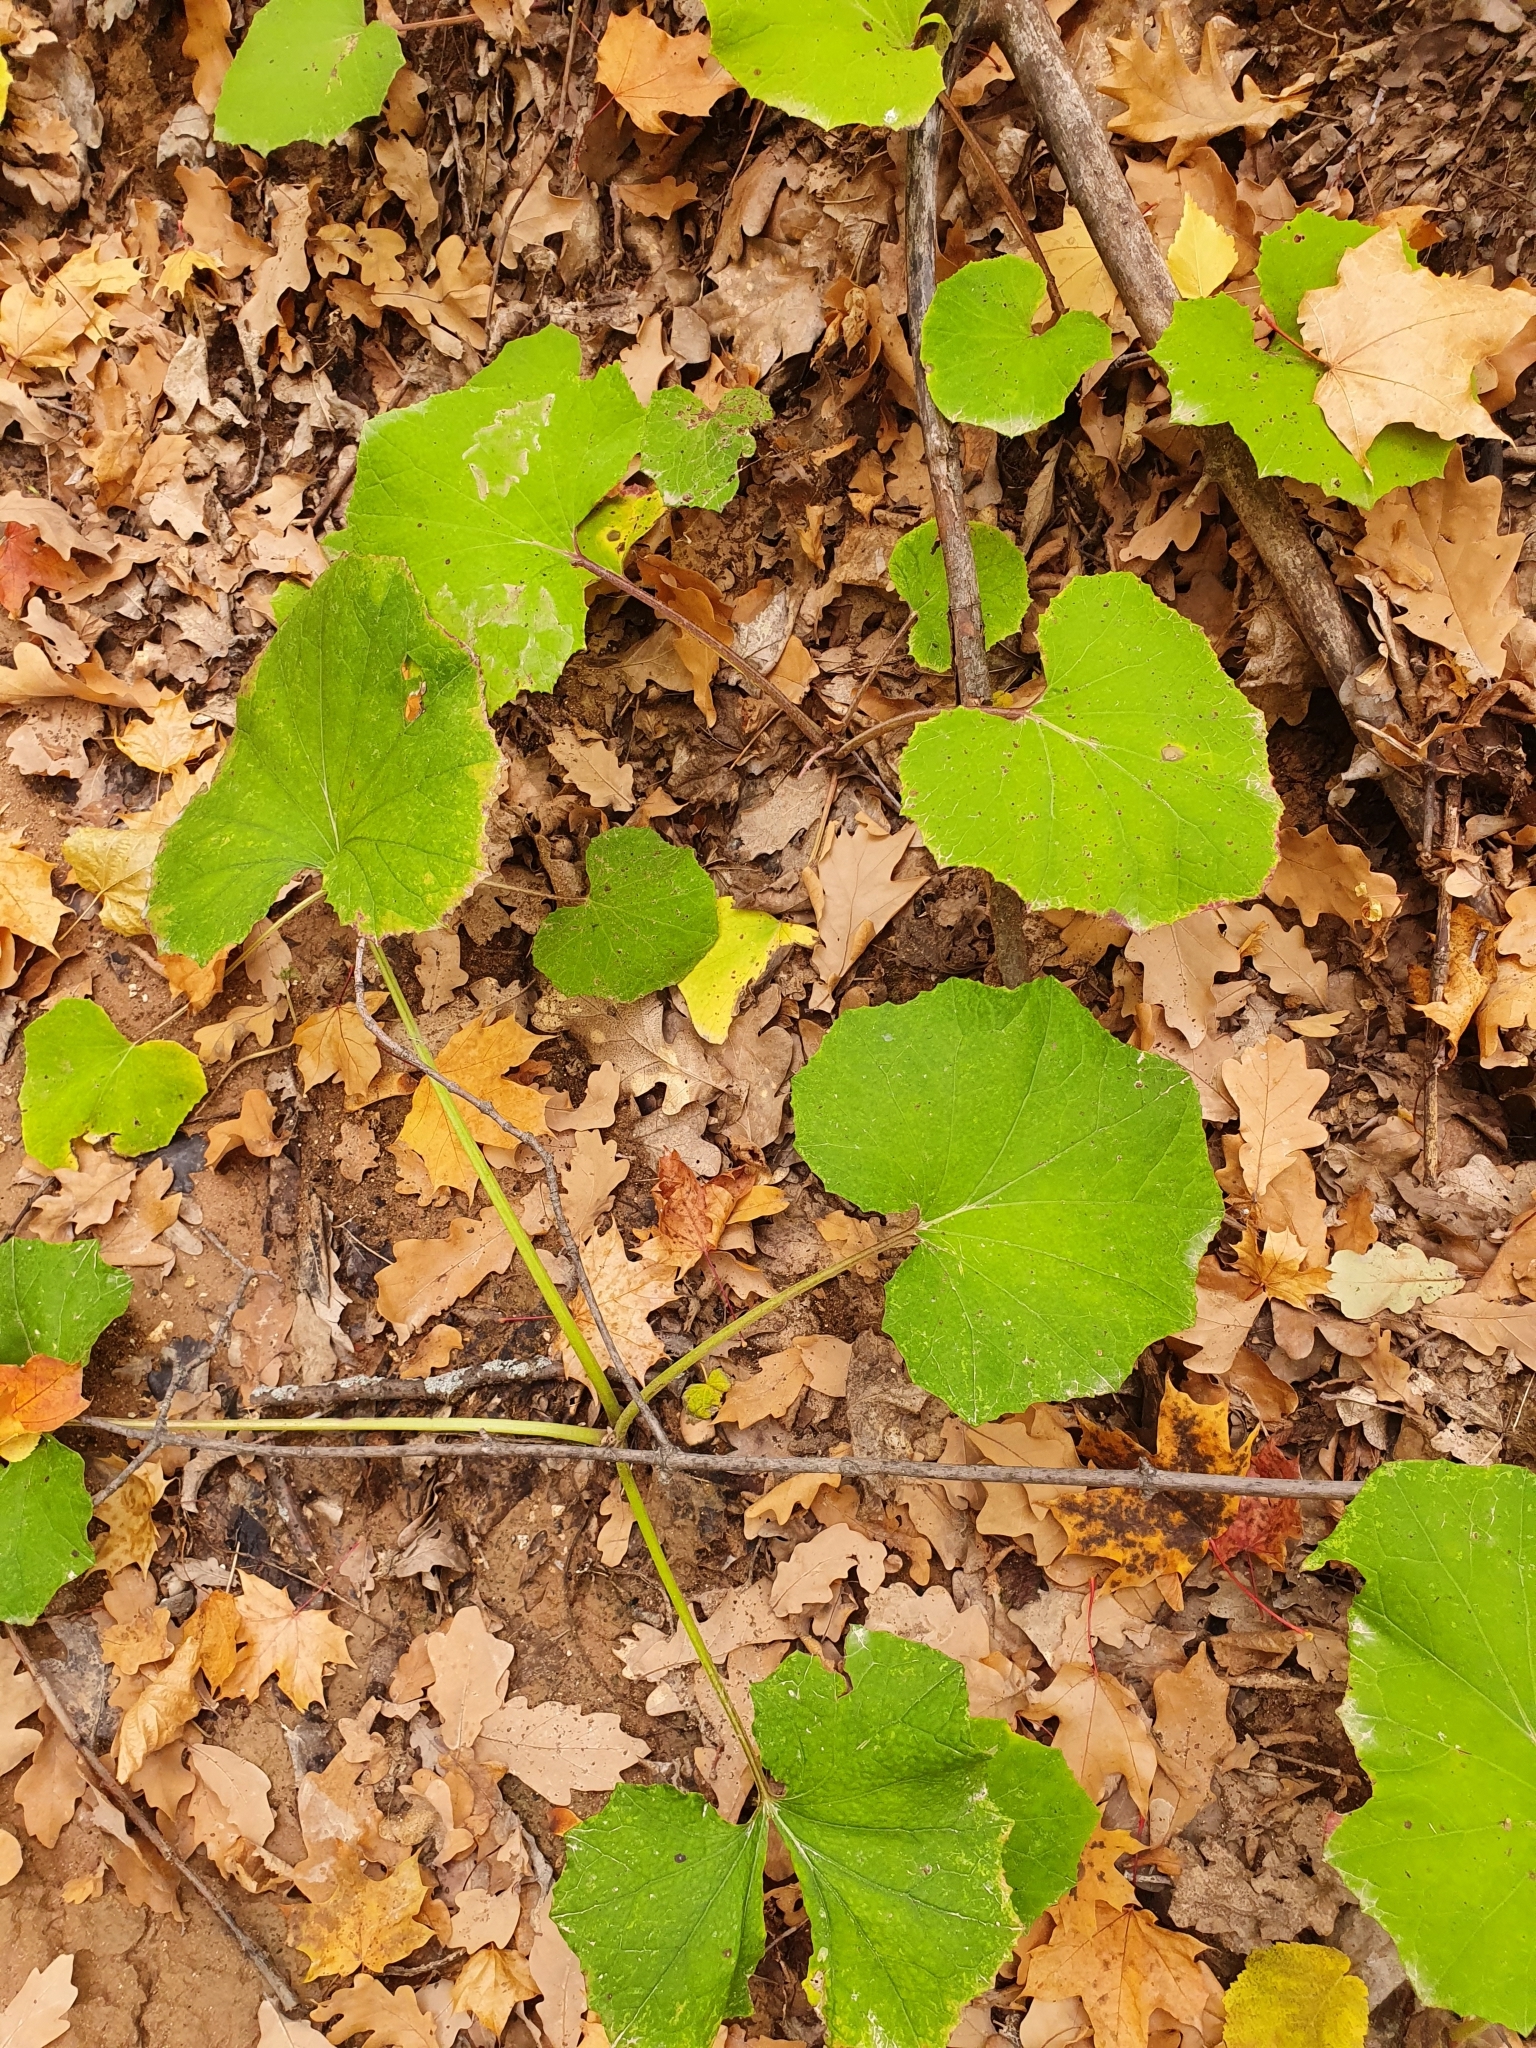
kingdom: Plantae
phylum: Tracheophyta
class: Magnoliopsida
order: Asterales
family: Asteraceae
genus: Tussilago
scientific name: Tussilago farfara
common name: Coltsfoot
